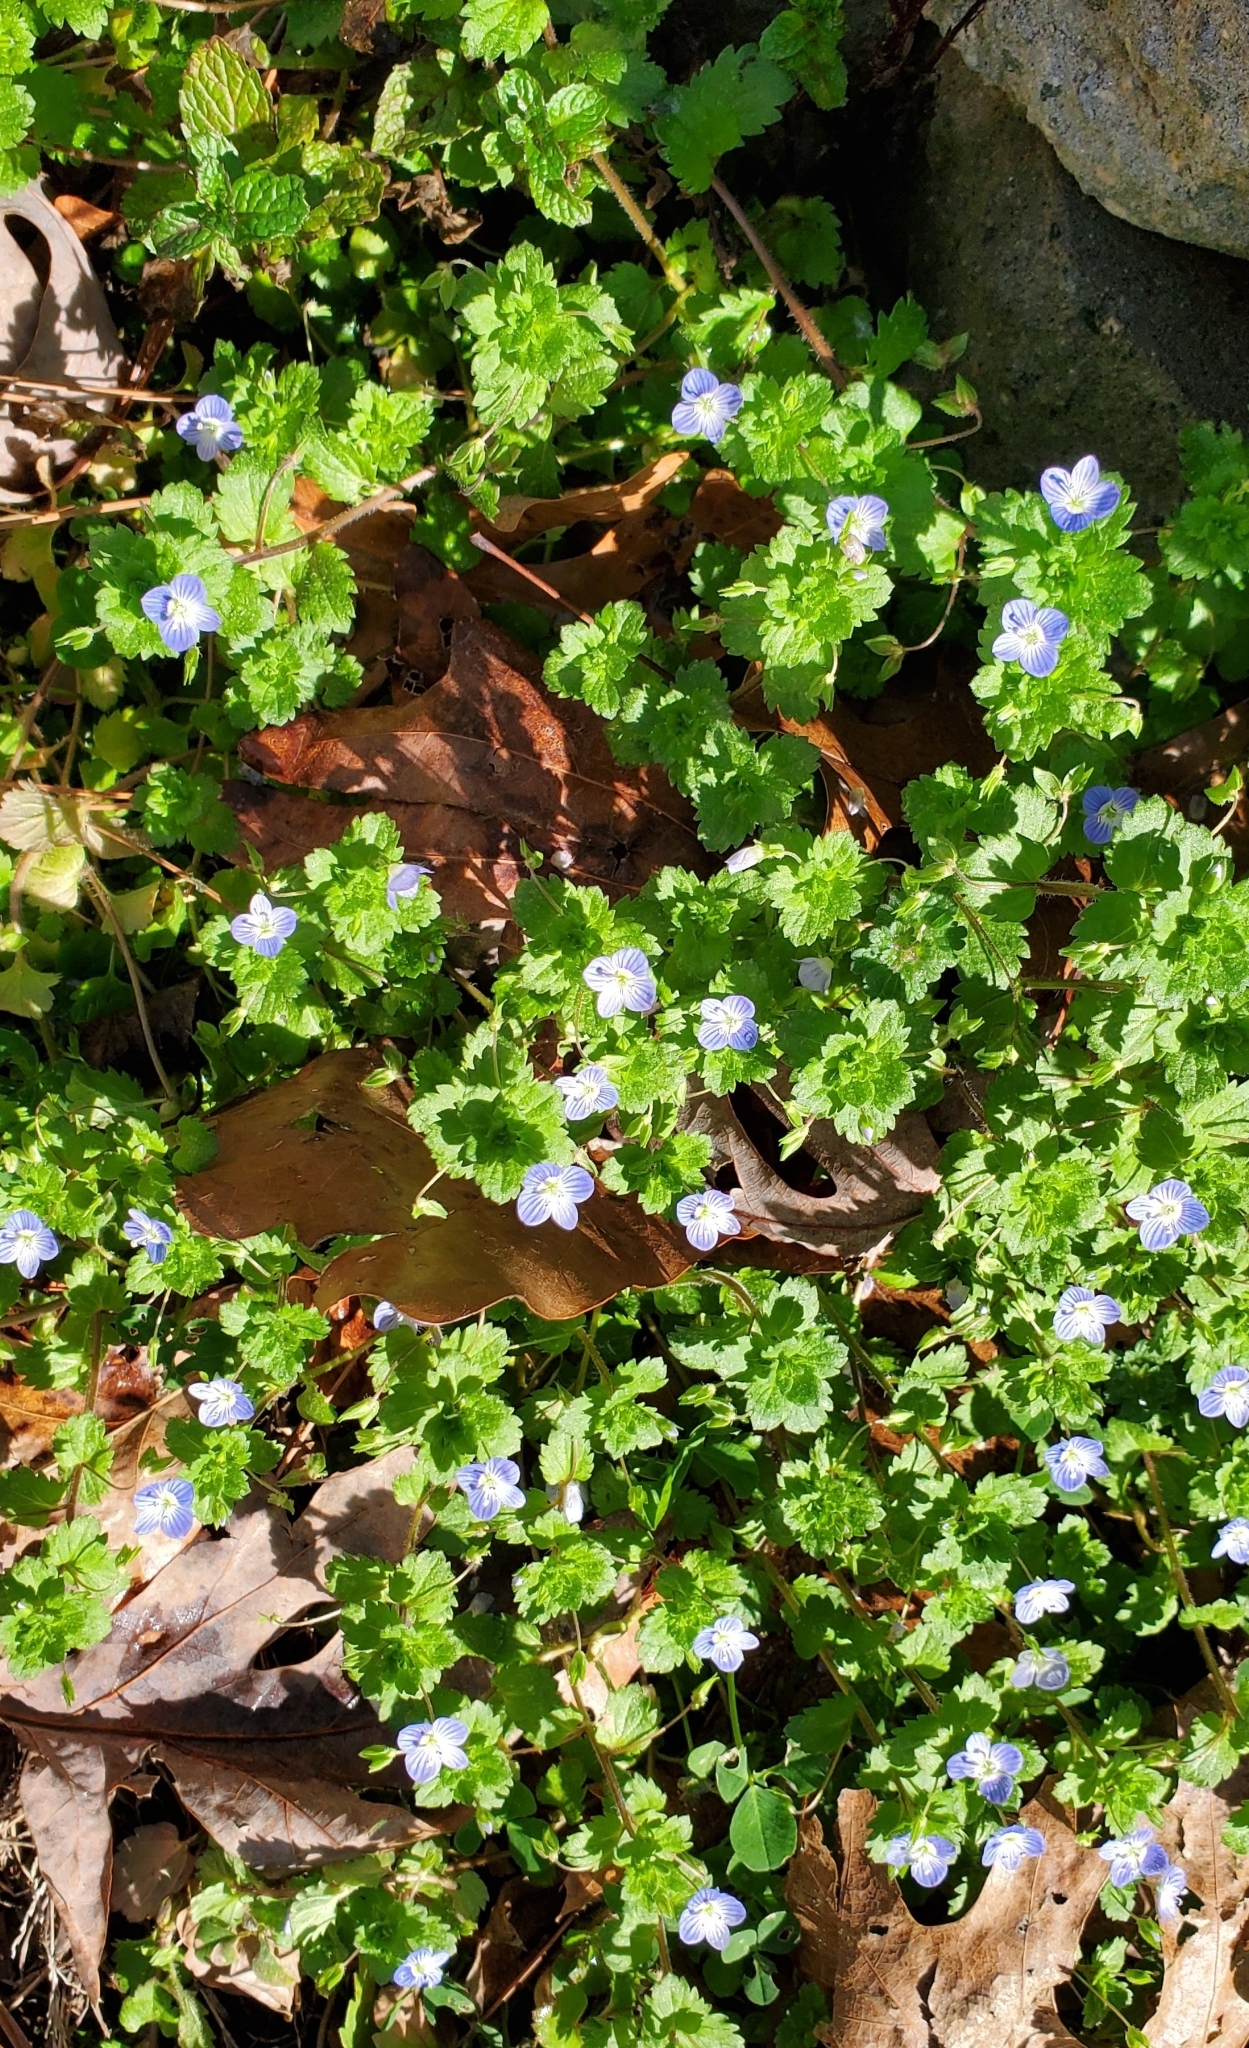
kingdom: Plantae
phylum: Tracheophyta
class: Magnoliopsida
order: Lamiales
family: Plantaginaceae
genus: Veronica
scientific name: Veronica persica
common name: Common field-speedwell
